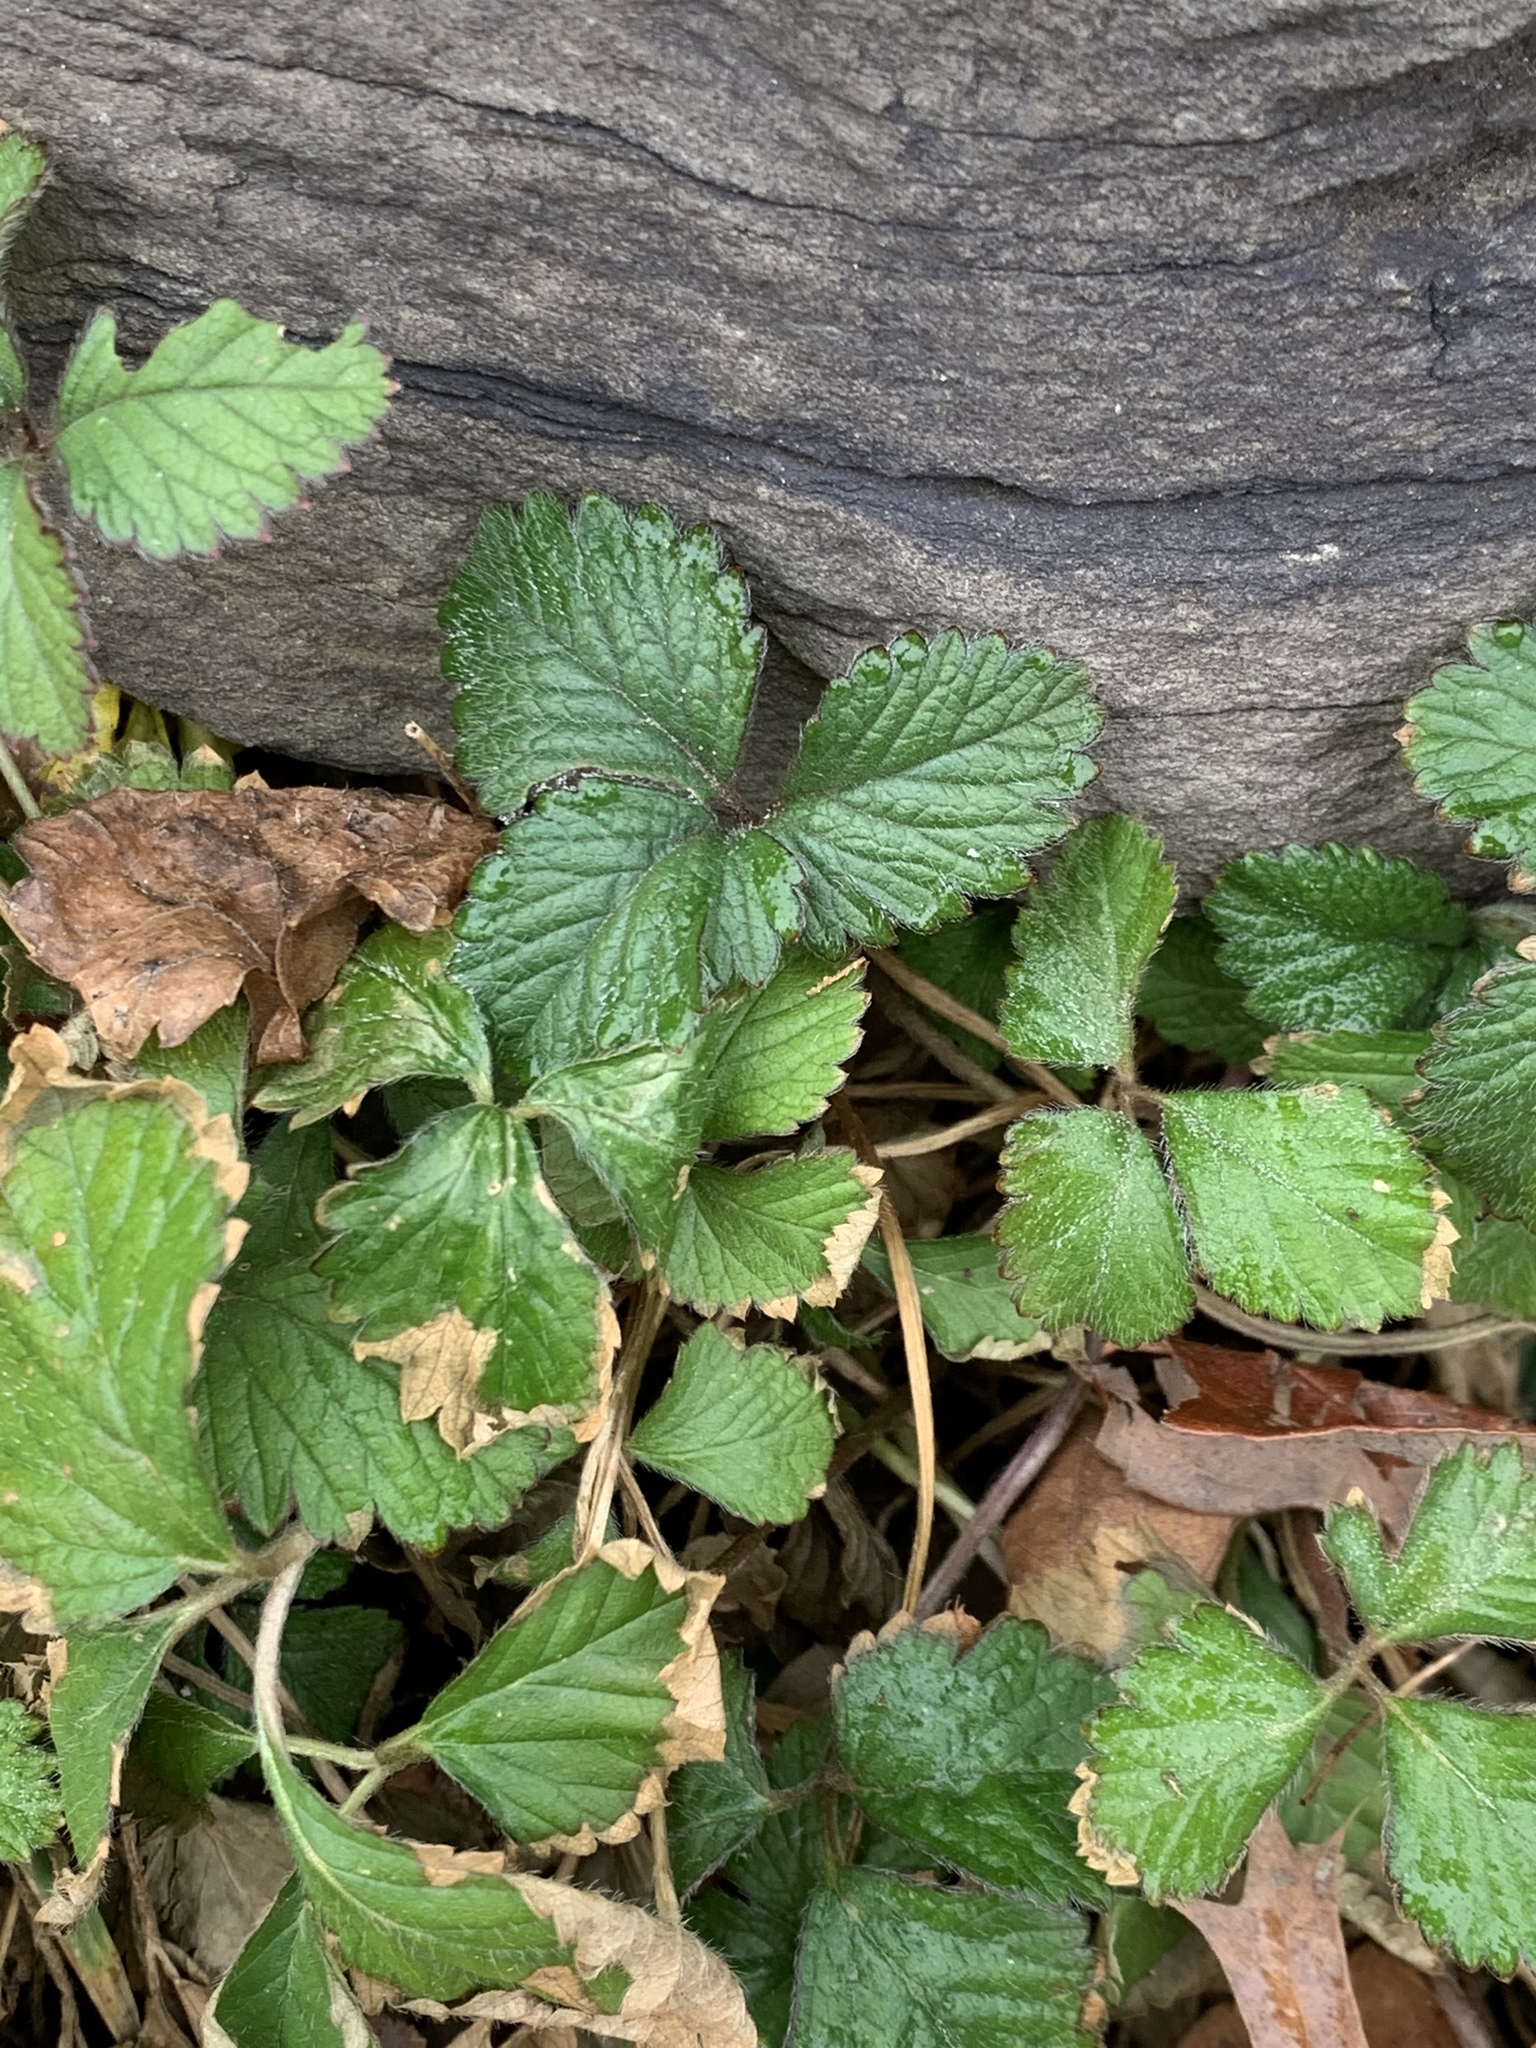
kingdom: Plantae
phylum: Tracheophyta
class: Magnoliopsida
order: Rosales
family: Rosaceae
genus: Potentilla
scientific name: Potentilla indica
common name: Yellow-flowered strawberry
